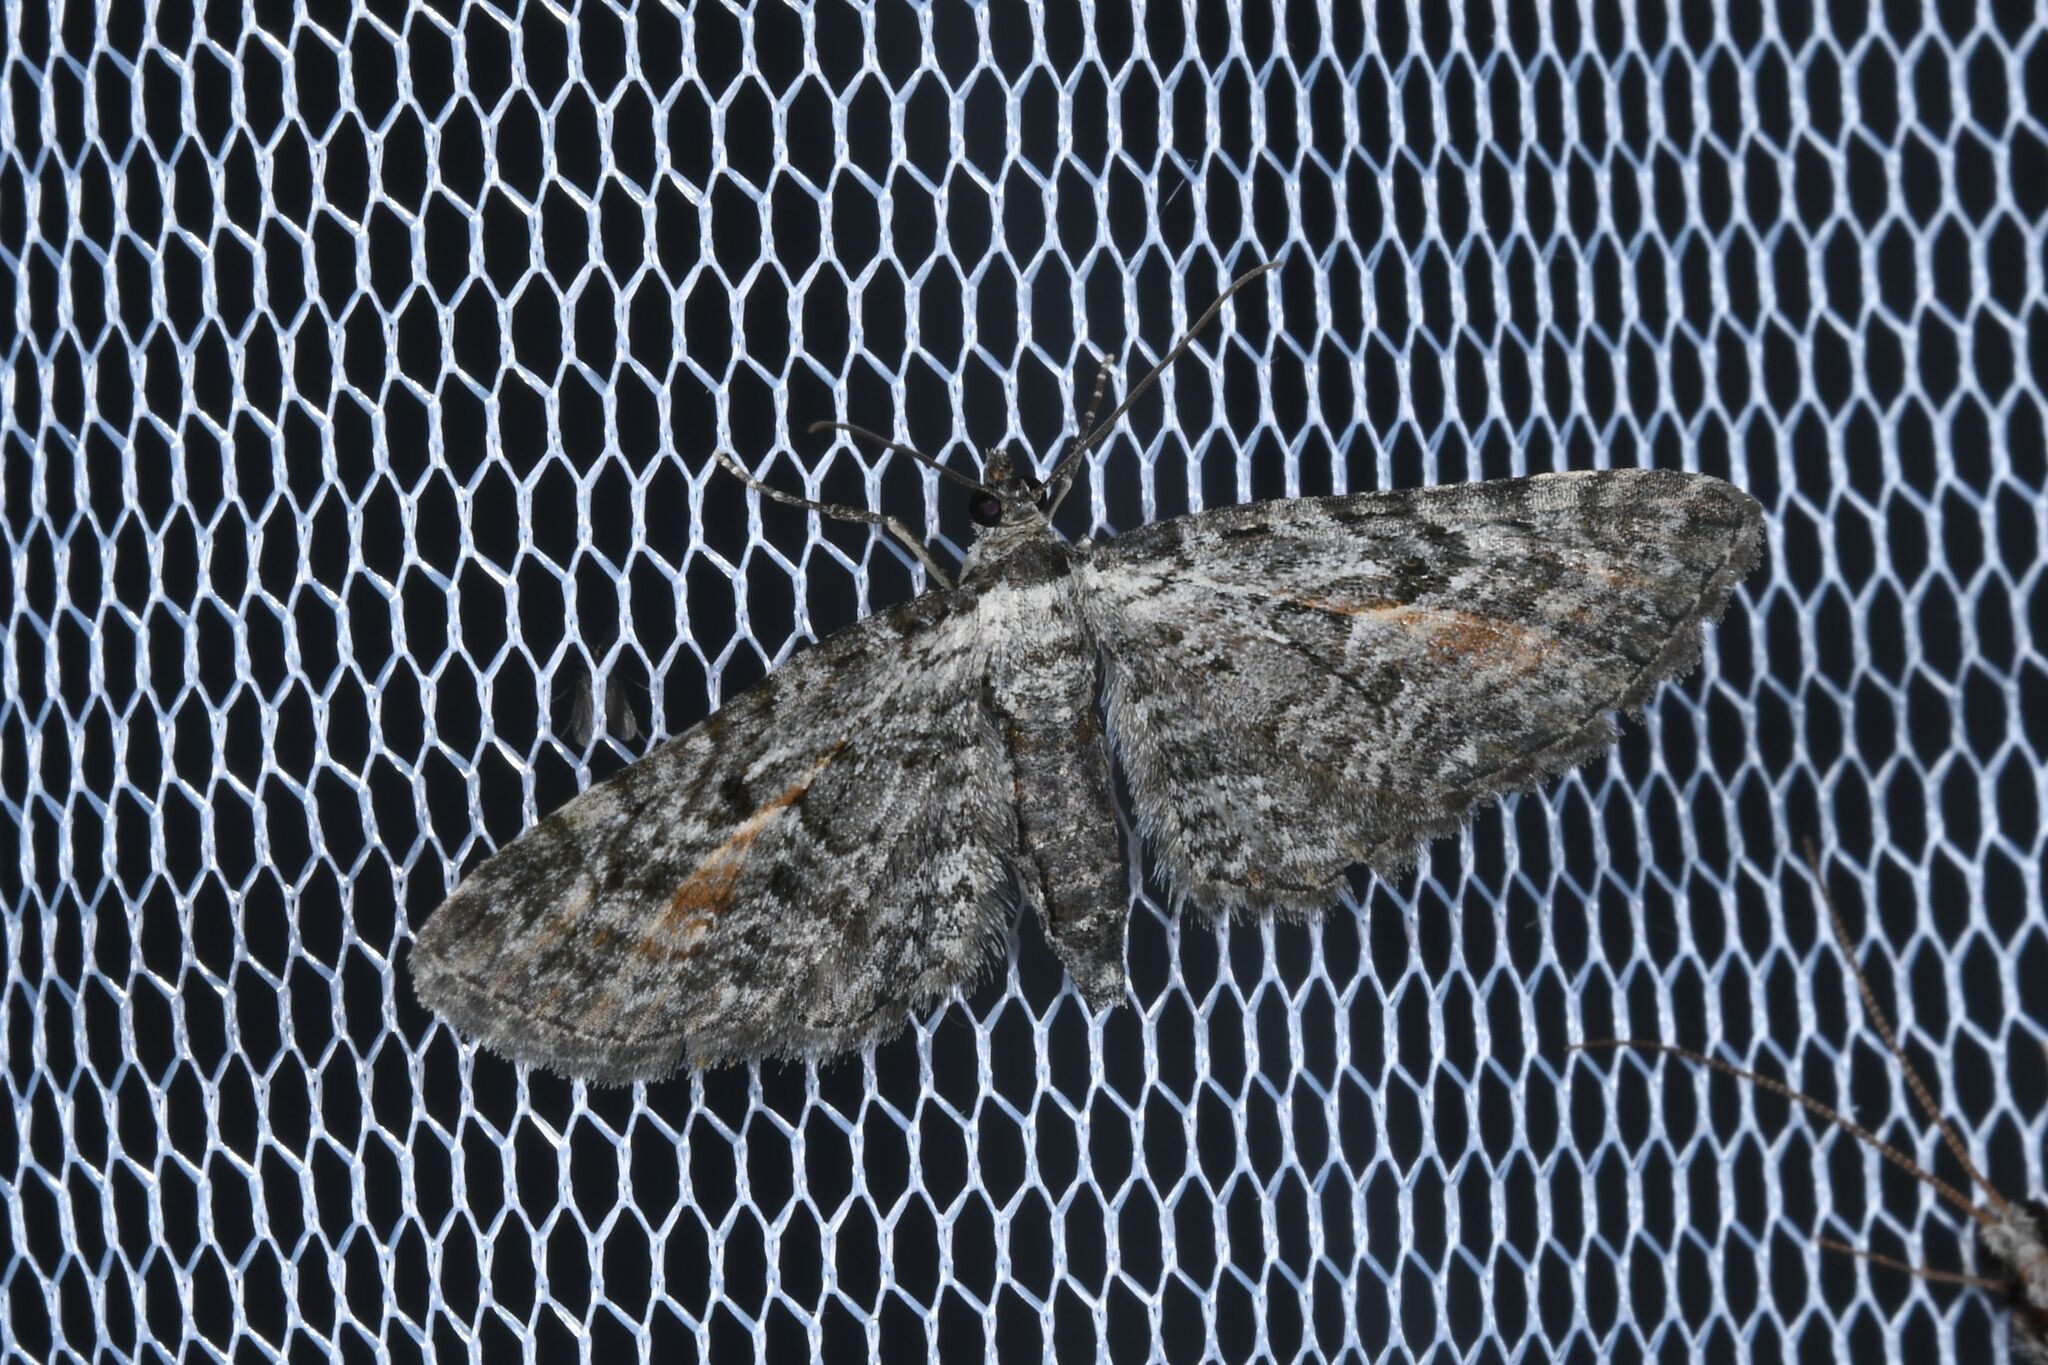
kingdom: Animalia
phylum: Arthropoda
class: Insecta
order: Lepidoptera
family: Geometridae
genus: Eupithecia
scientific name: Eupithecia icterata
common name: Tawny speckled pug
